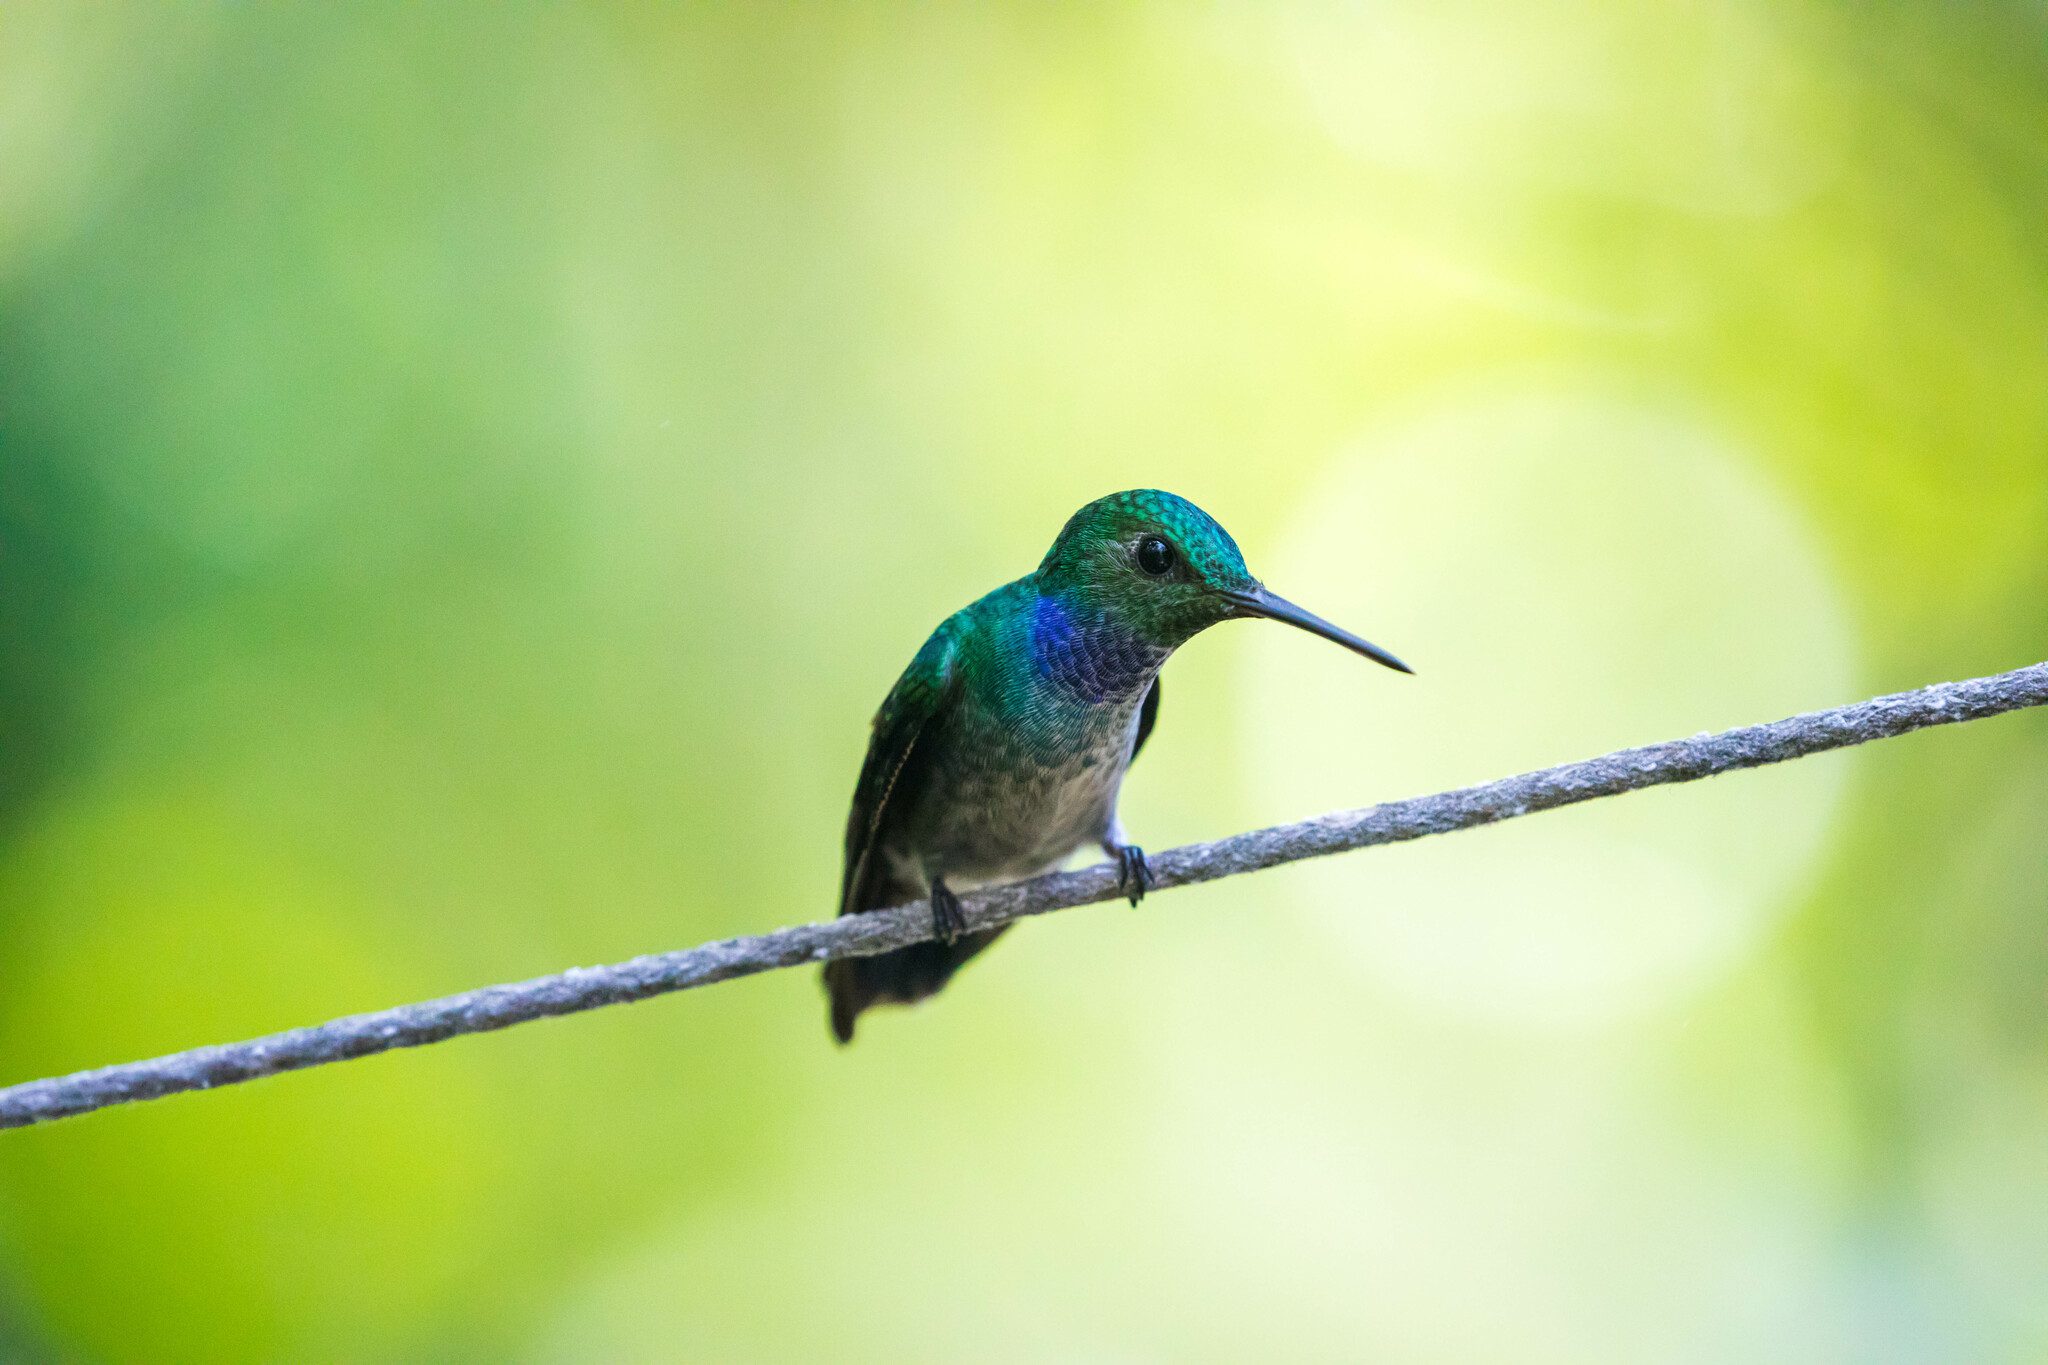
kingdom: Animalia
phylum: Chordata
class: Aves
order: Apodiformes
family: Trochilidae
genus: Polyerata
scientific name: Polyerata amabilis
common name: Blue-chested hummingbird
